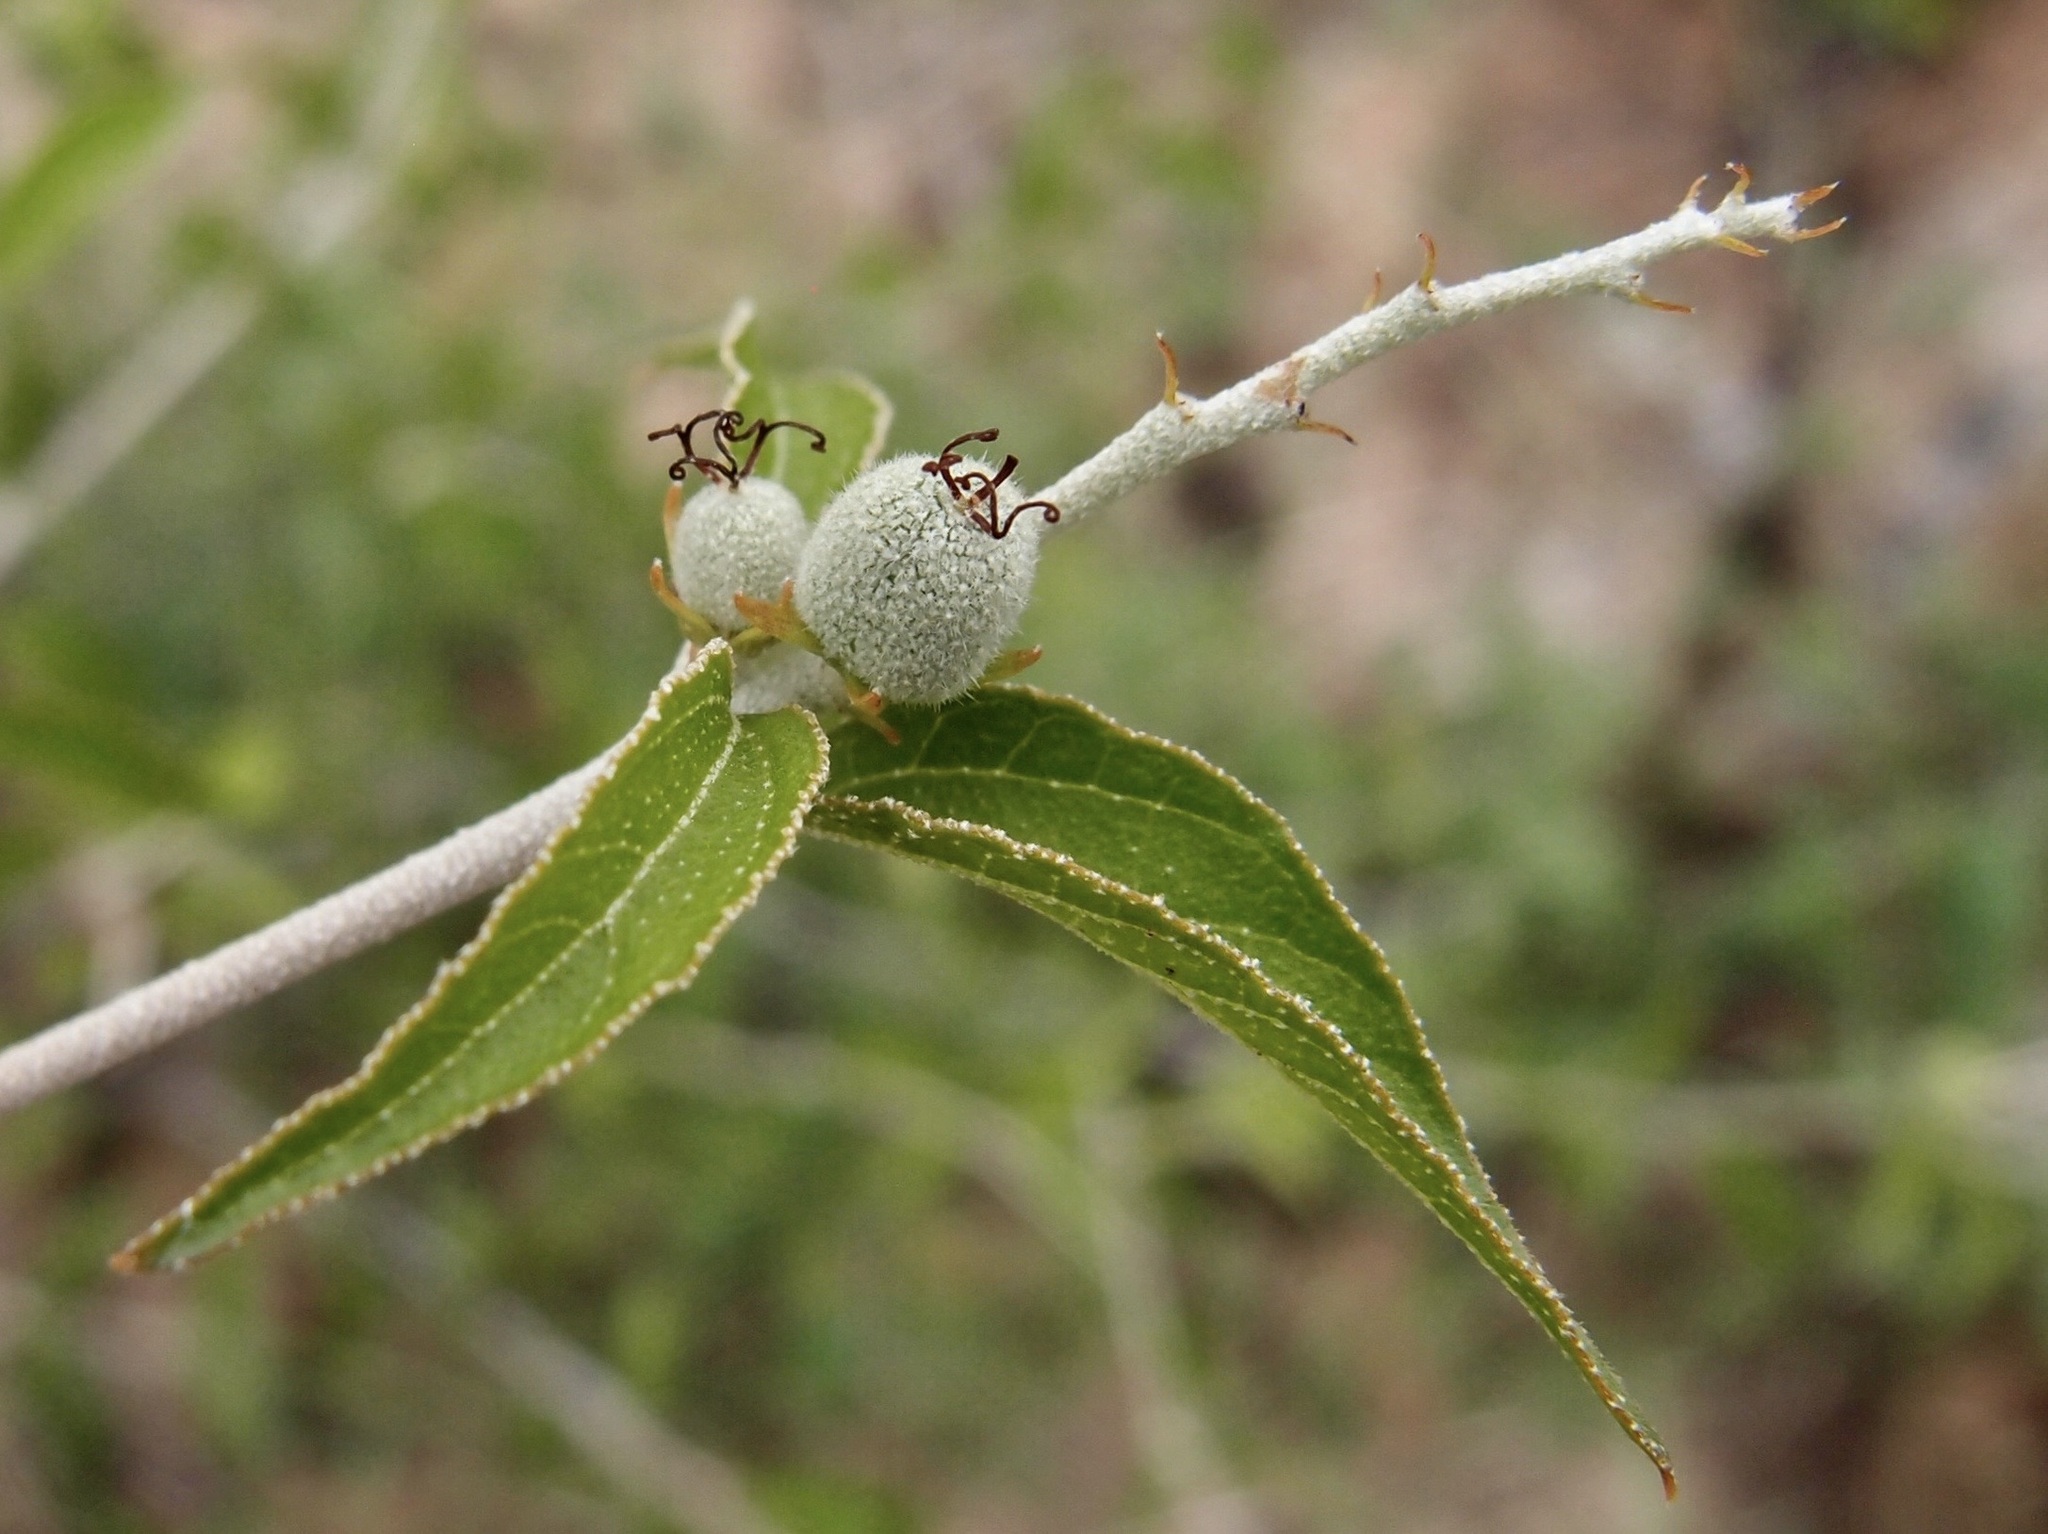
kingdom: Plantae
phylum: Tracheophyta
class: Magnoliopsida
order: Malpighiales
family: Euphorbiaceae
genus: Croton
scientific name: Croton sonorae
